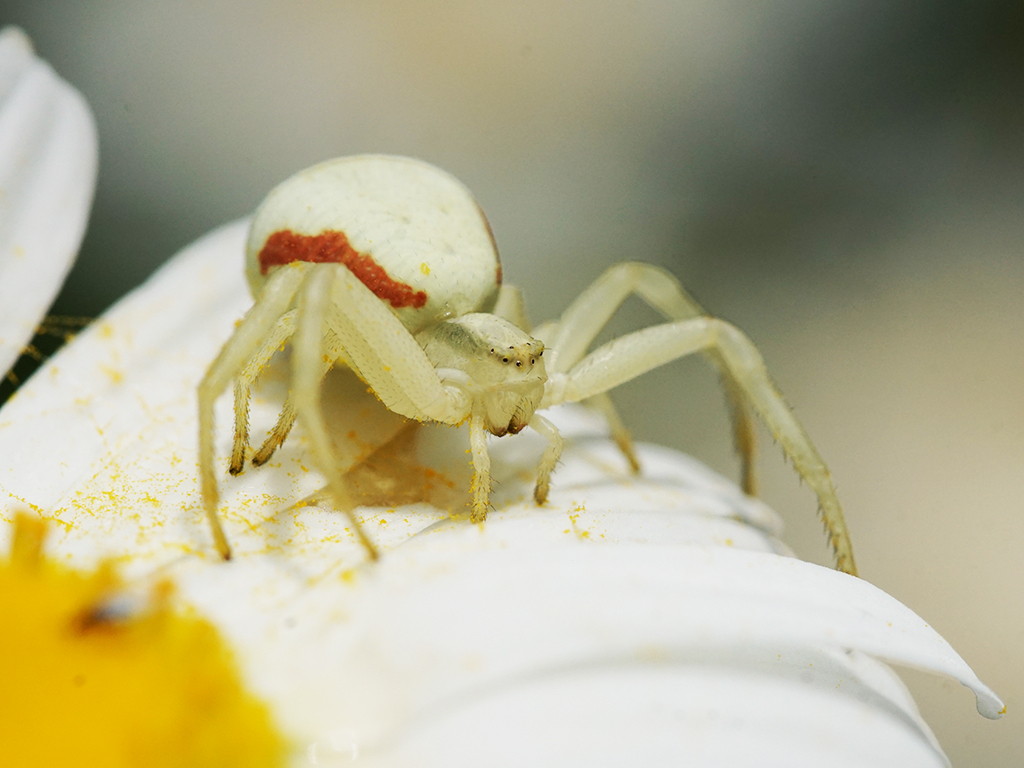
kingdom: Animalia
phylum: Arthropoda
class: Arachnida
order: Araneae
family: Thomisidae
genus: Misumena
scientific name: Misumena vatia
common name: Goldenrod crab spider
